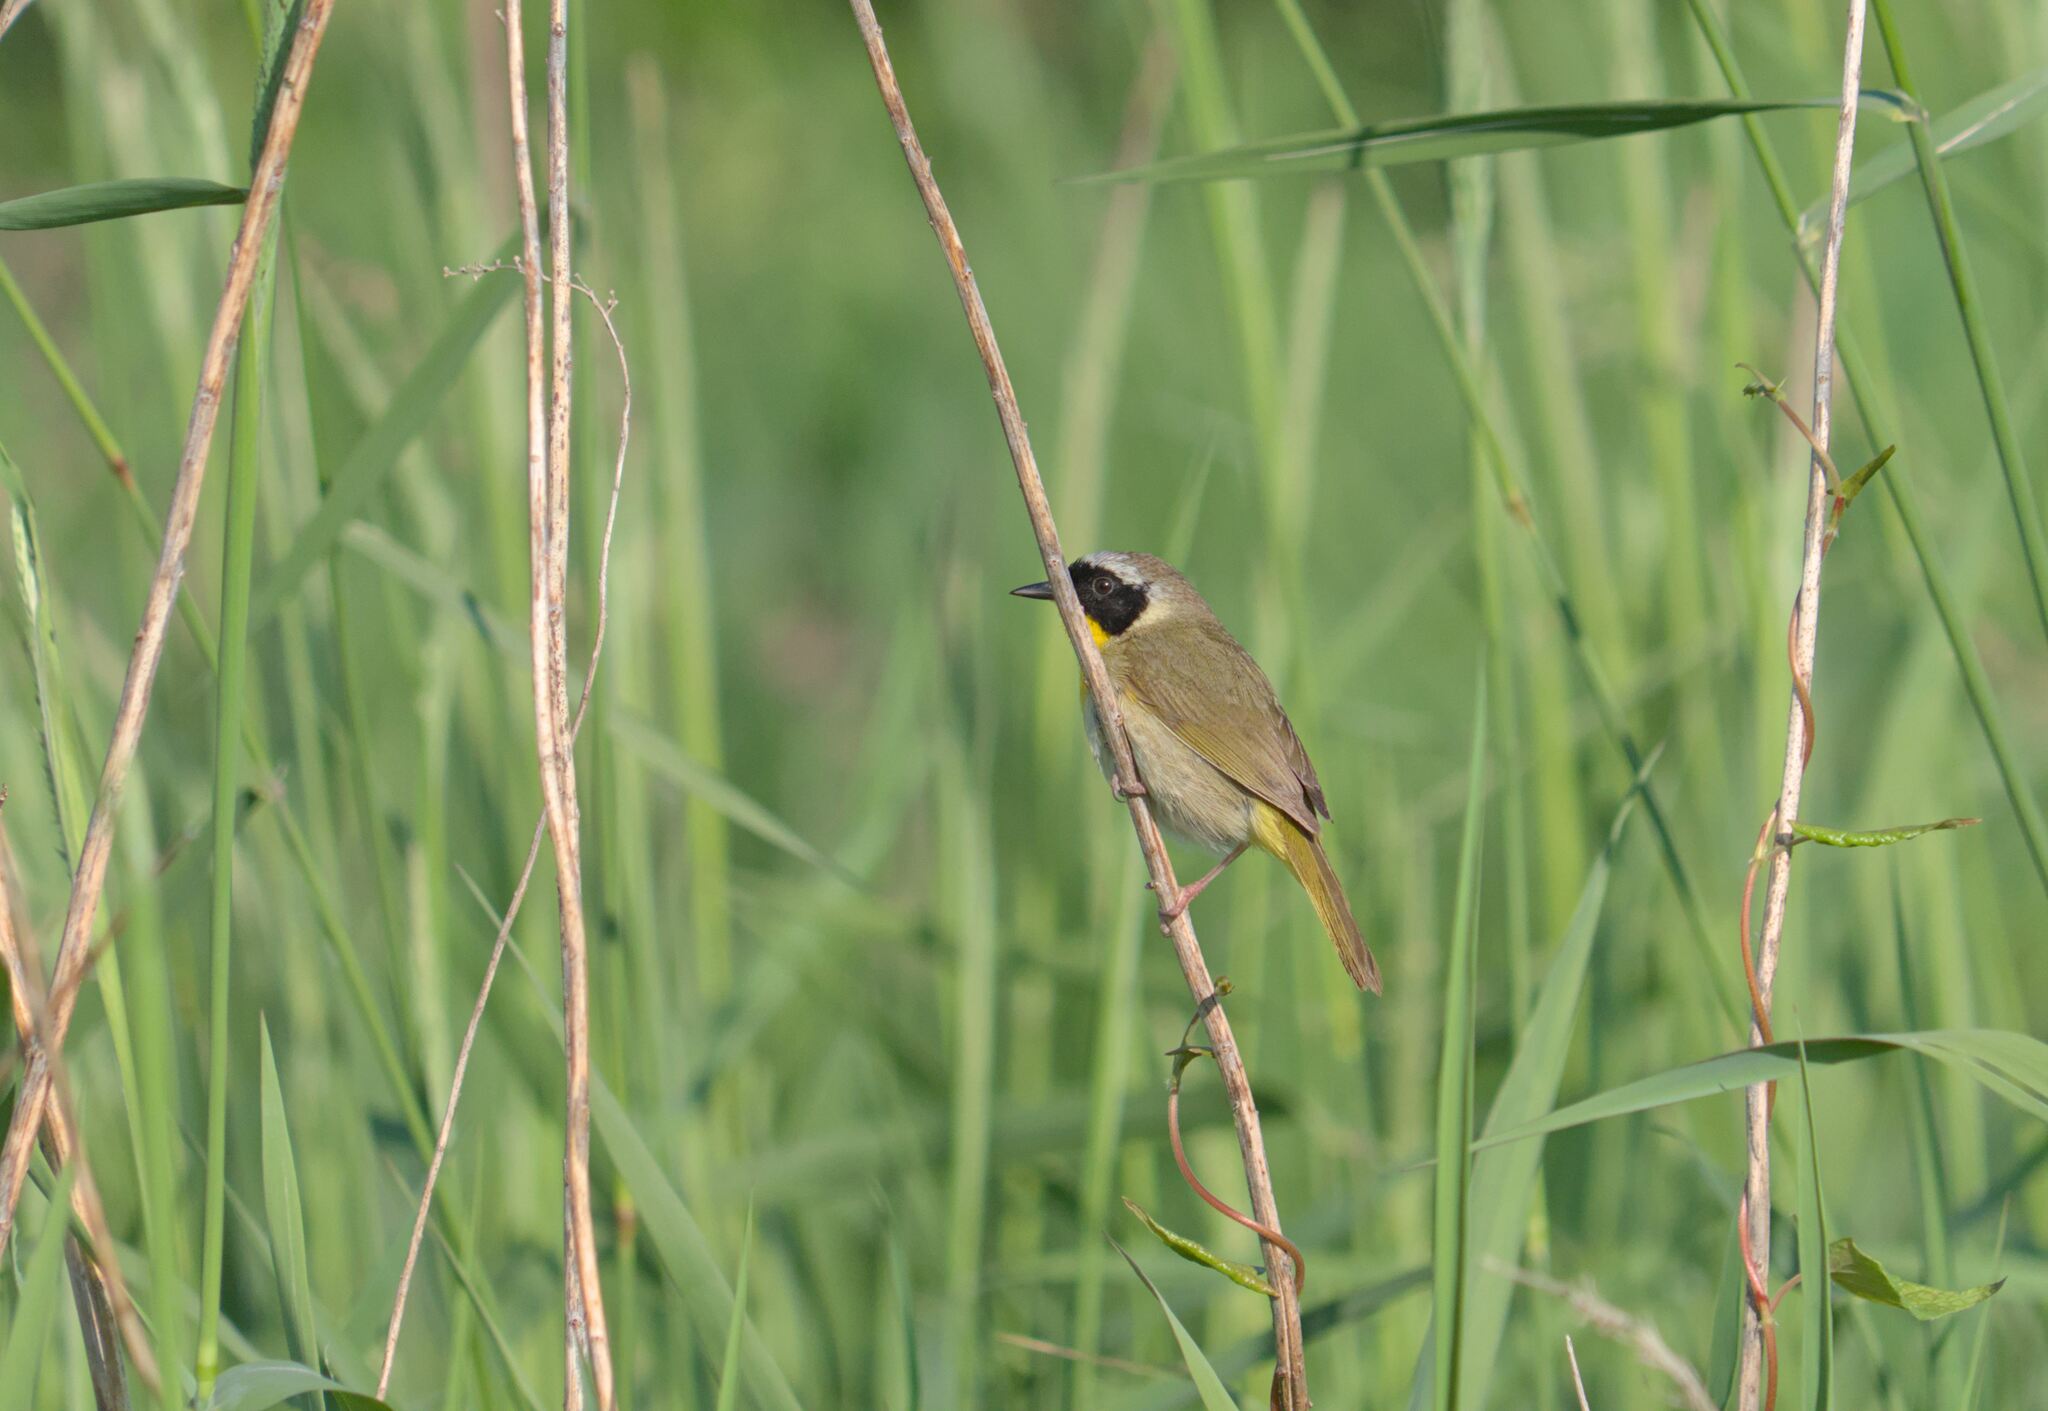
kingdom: Animalia
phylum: Chordata
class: Aves
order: Passeriformes
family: Parulidae
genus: Geothlypis
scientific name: Geothlypis trichas
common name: Common yellowthroat
